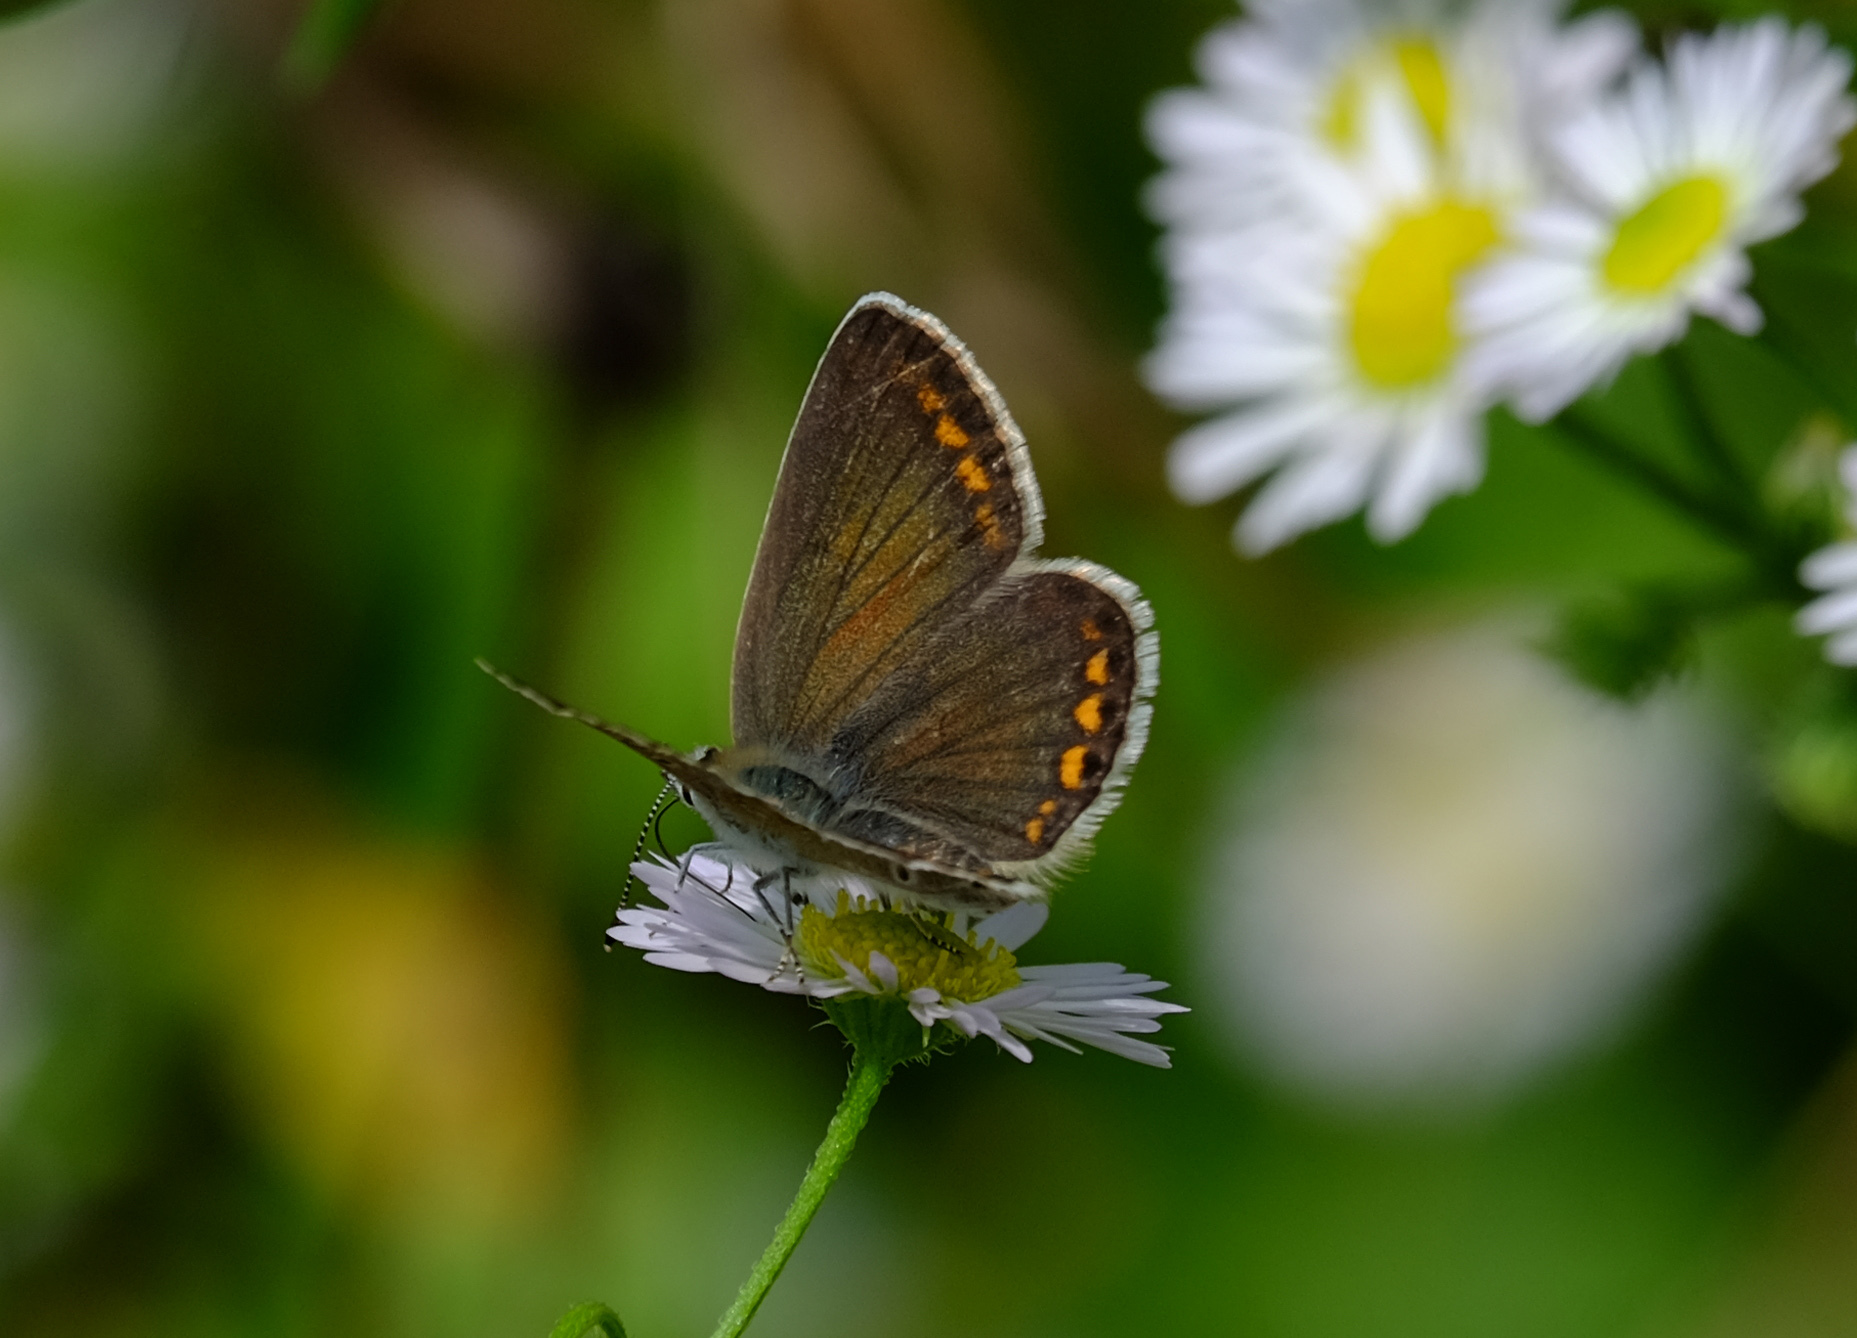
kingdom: Animalia
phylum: Arthropoda
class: Insecta
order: Lepidoptera
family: Lycaenidae
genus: Polyommatus
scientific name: Polyommatus icarus
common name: Common blue
